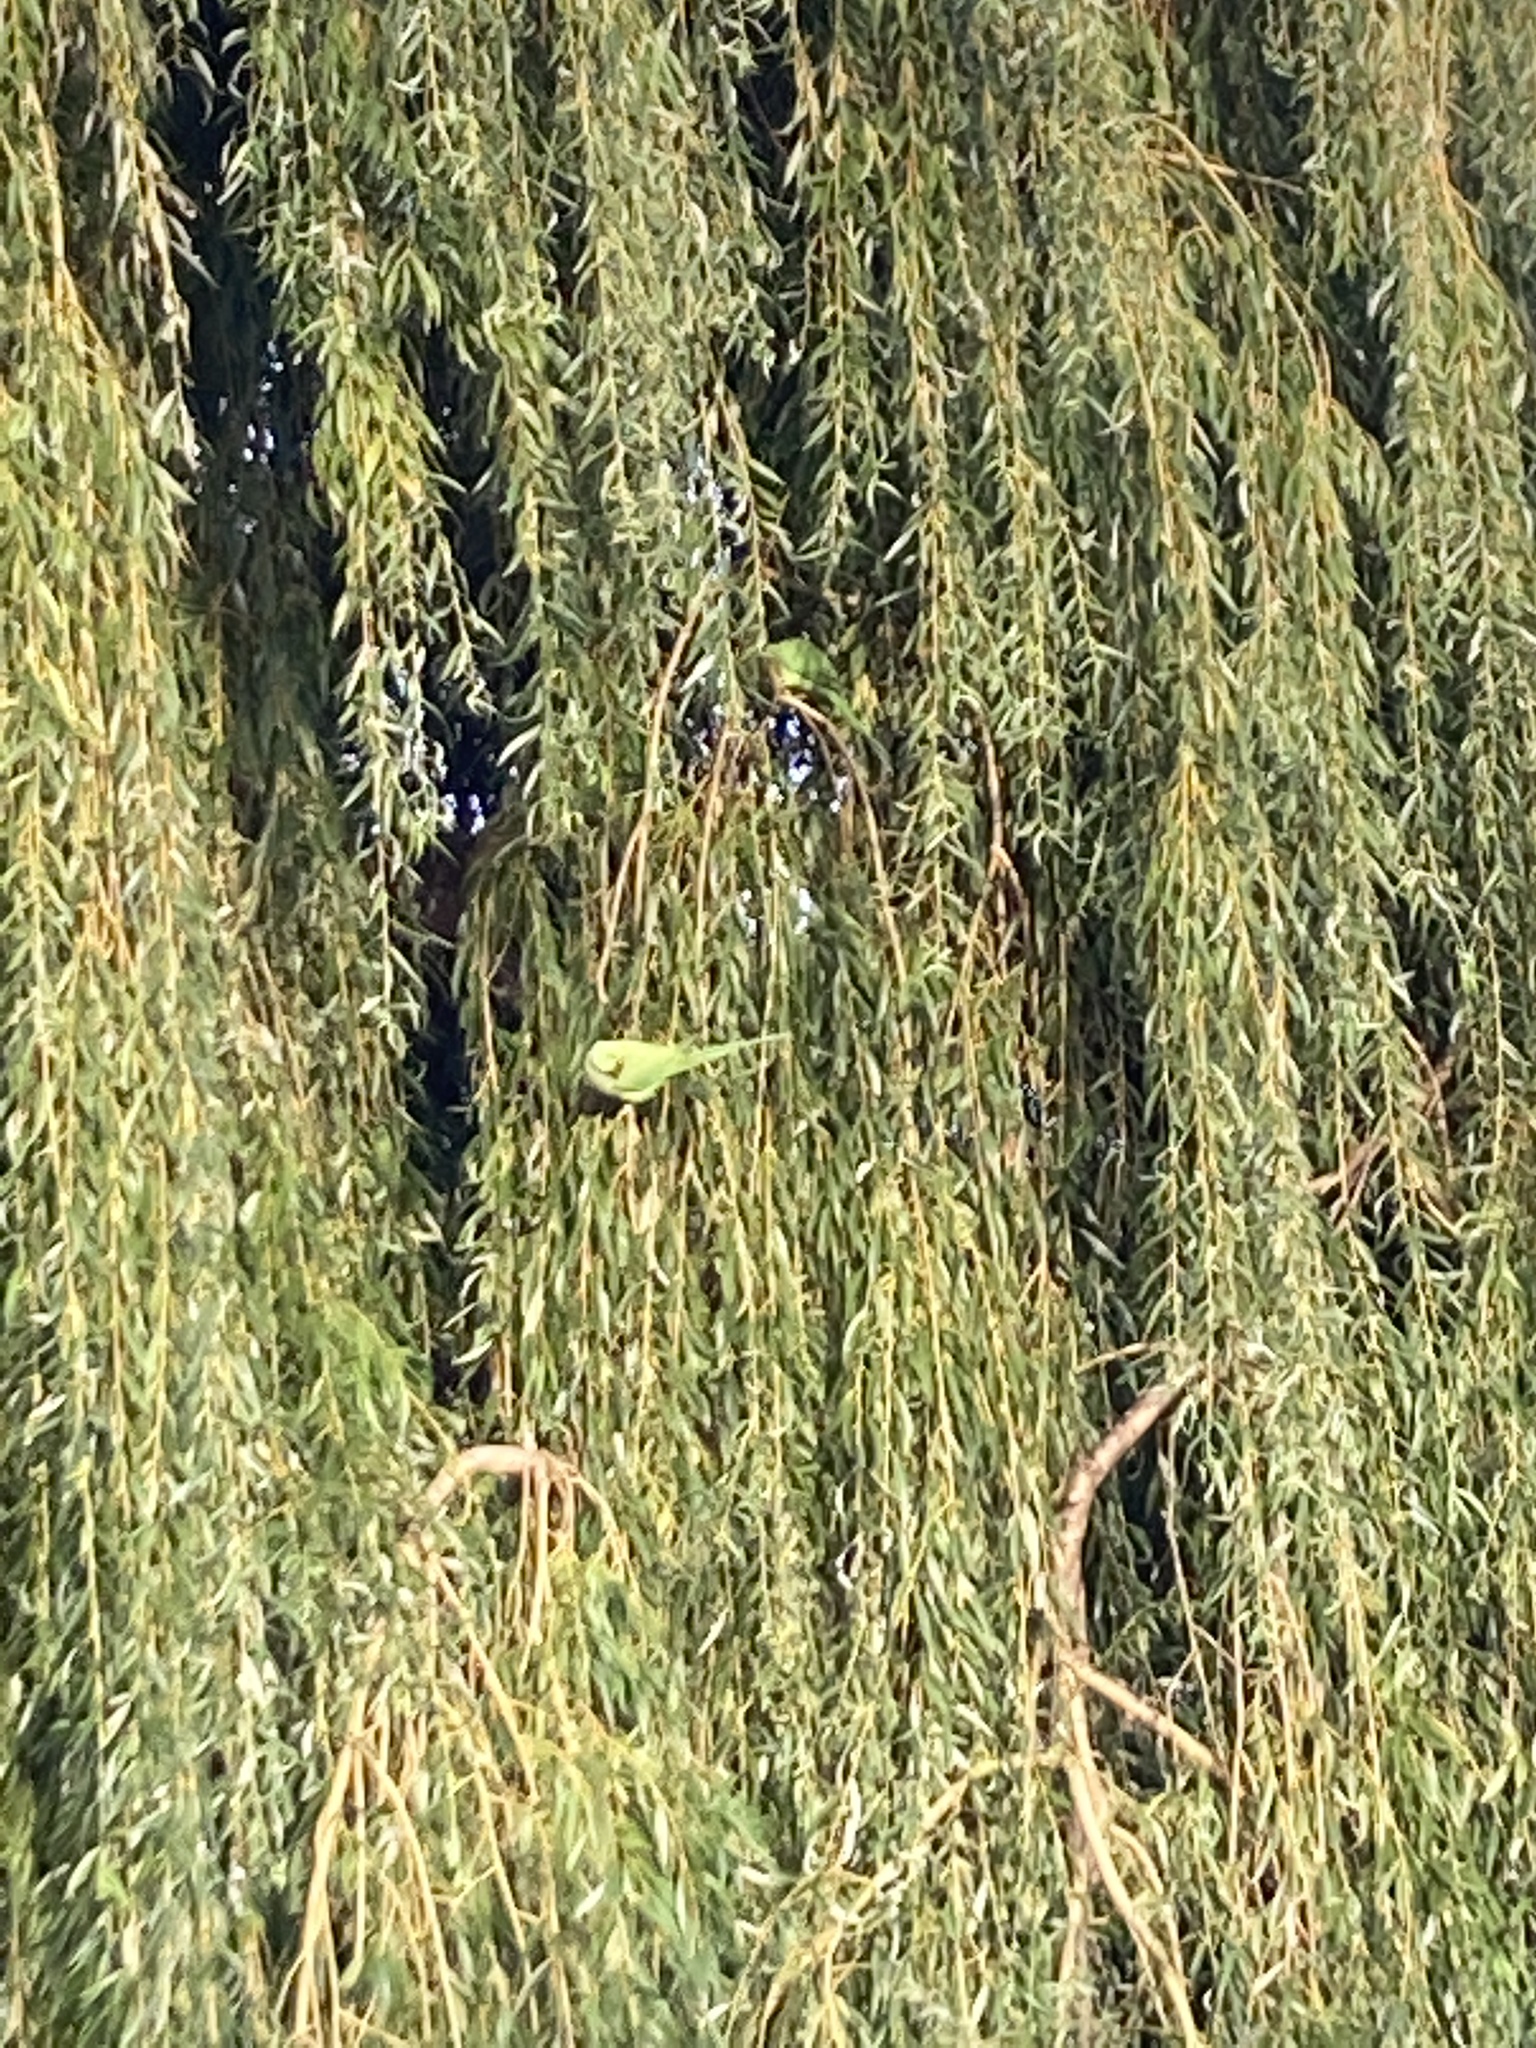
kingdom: Animalia
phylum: Chordata
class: Aves
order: Psittaciformes
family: Psittacidae
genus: Psittacula
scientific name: Psittacula krameri
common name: Rose-ringed parakeet
